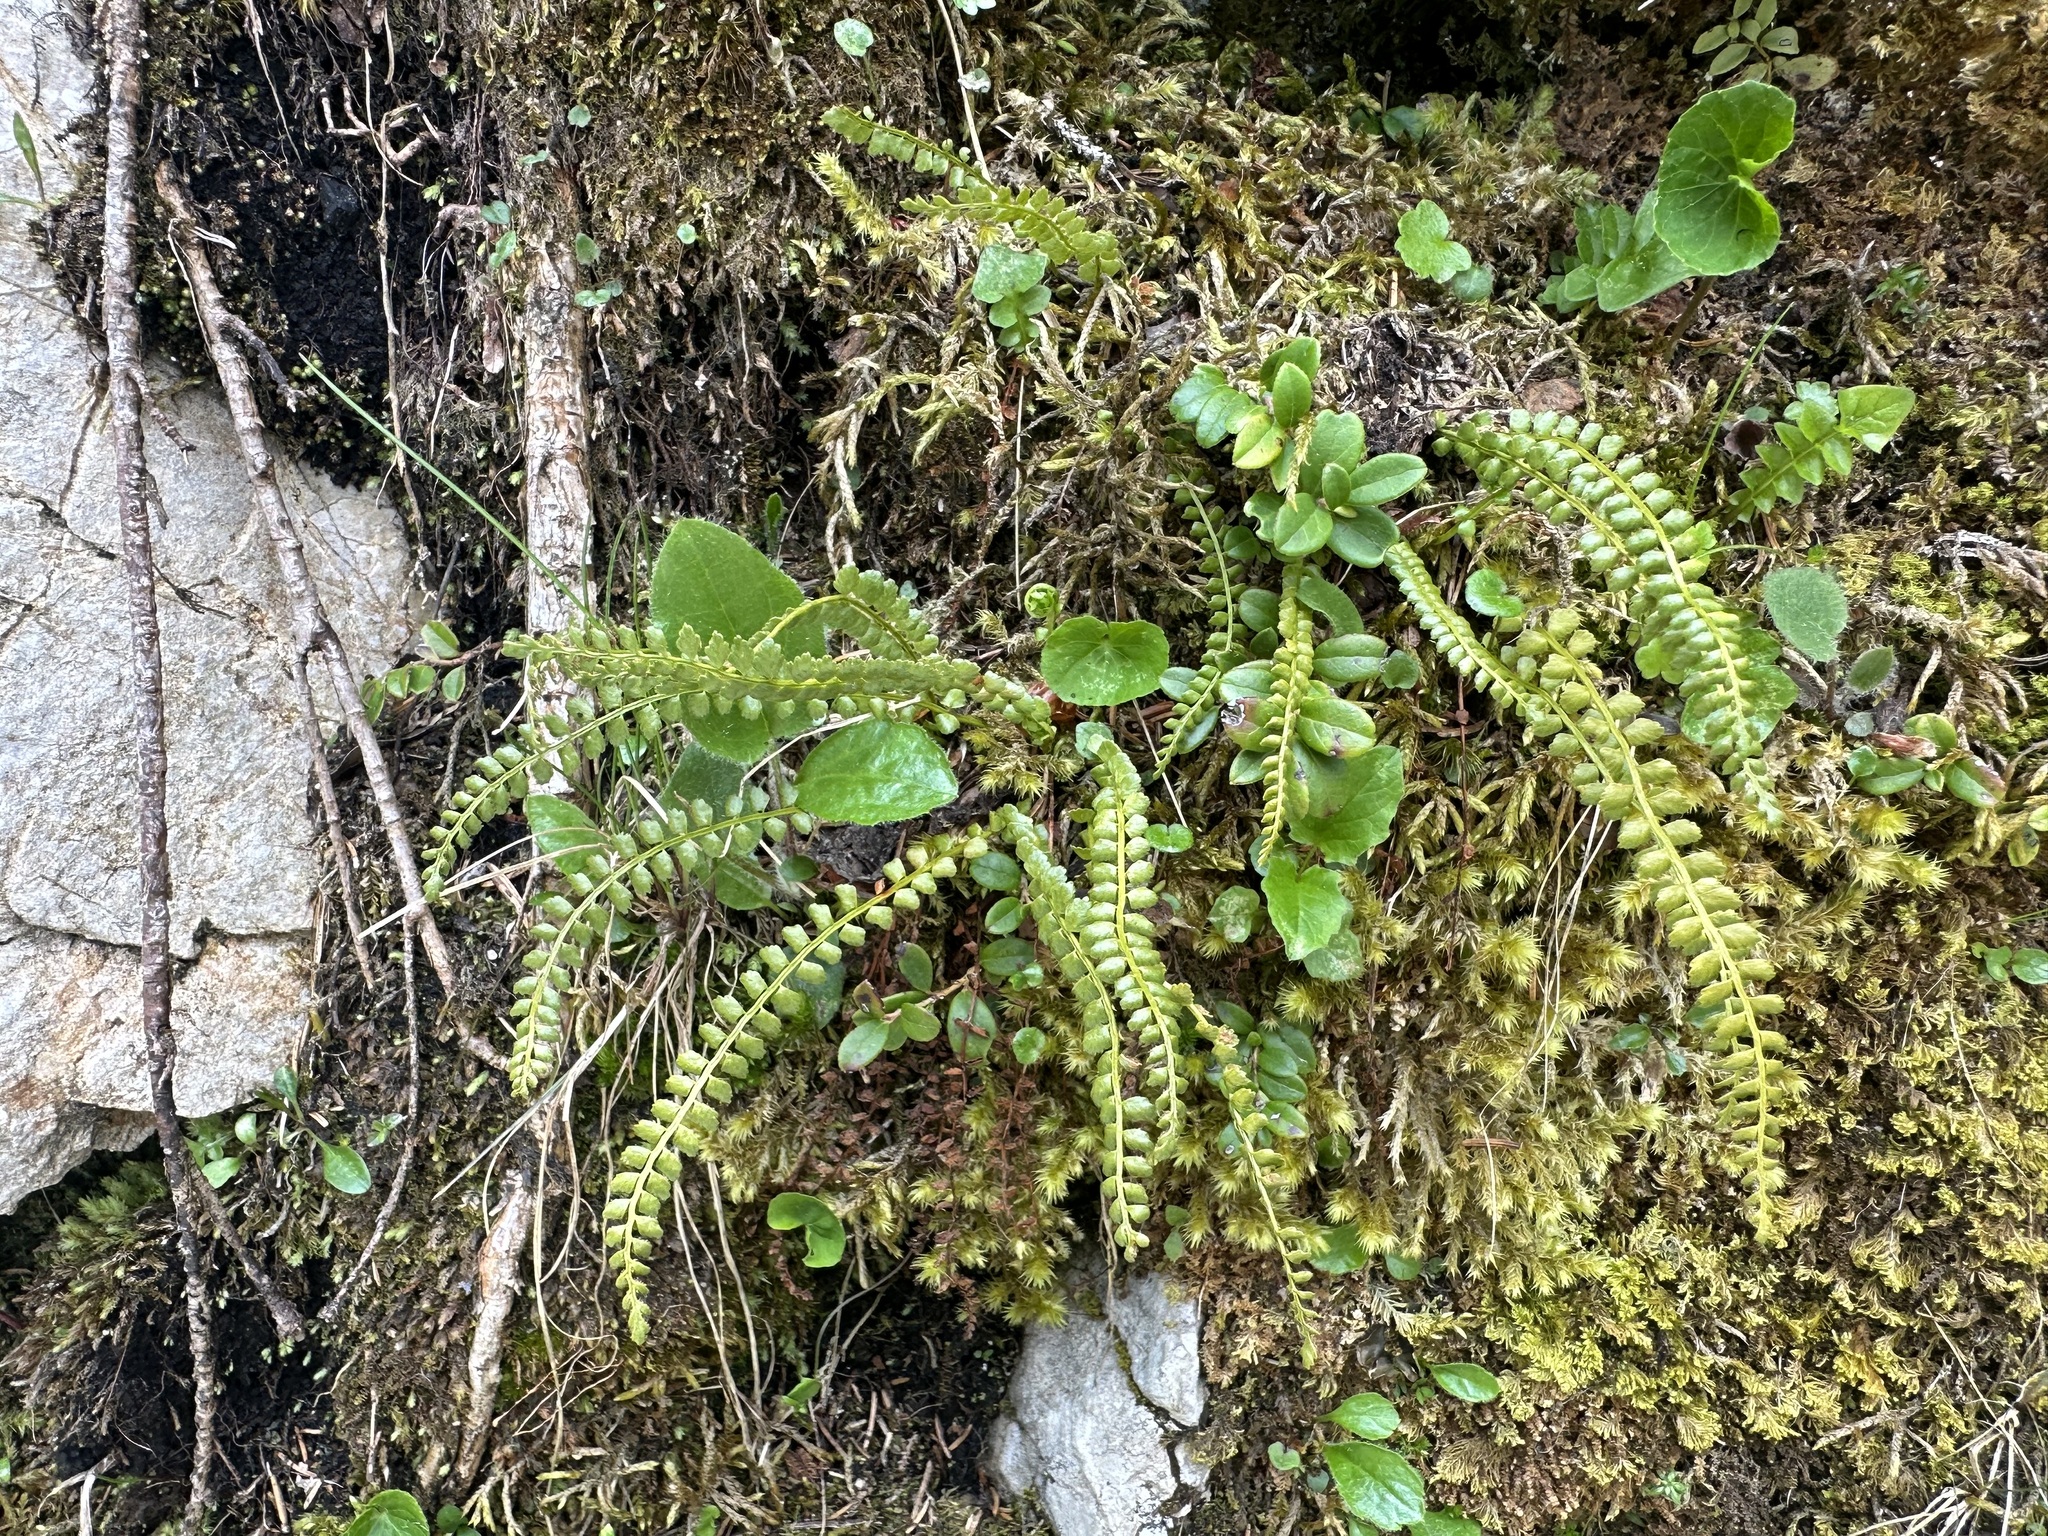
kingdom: Plantae
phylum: Tracheophyta
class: Polypodiopsida
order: Polypodiales
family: Aspleniaceae
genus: Asplenium
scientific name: Asplenium viride
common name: Green spleenwort
